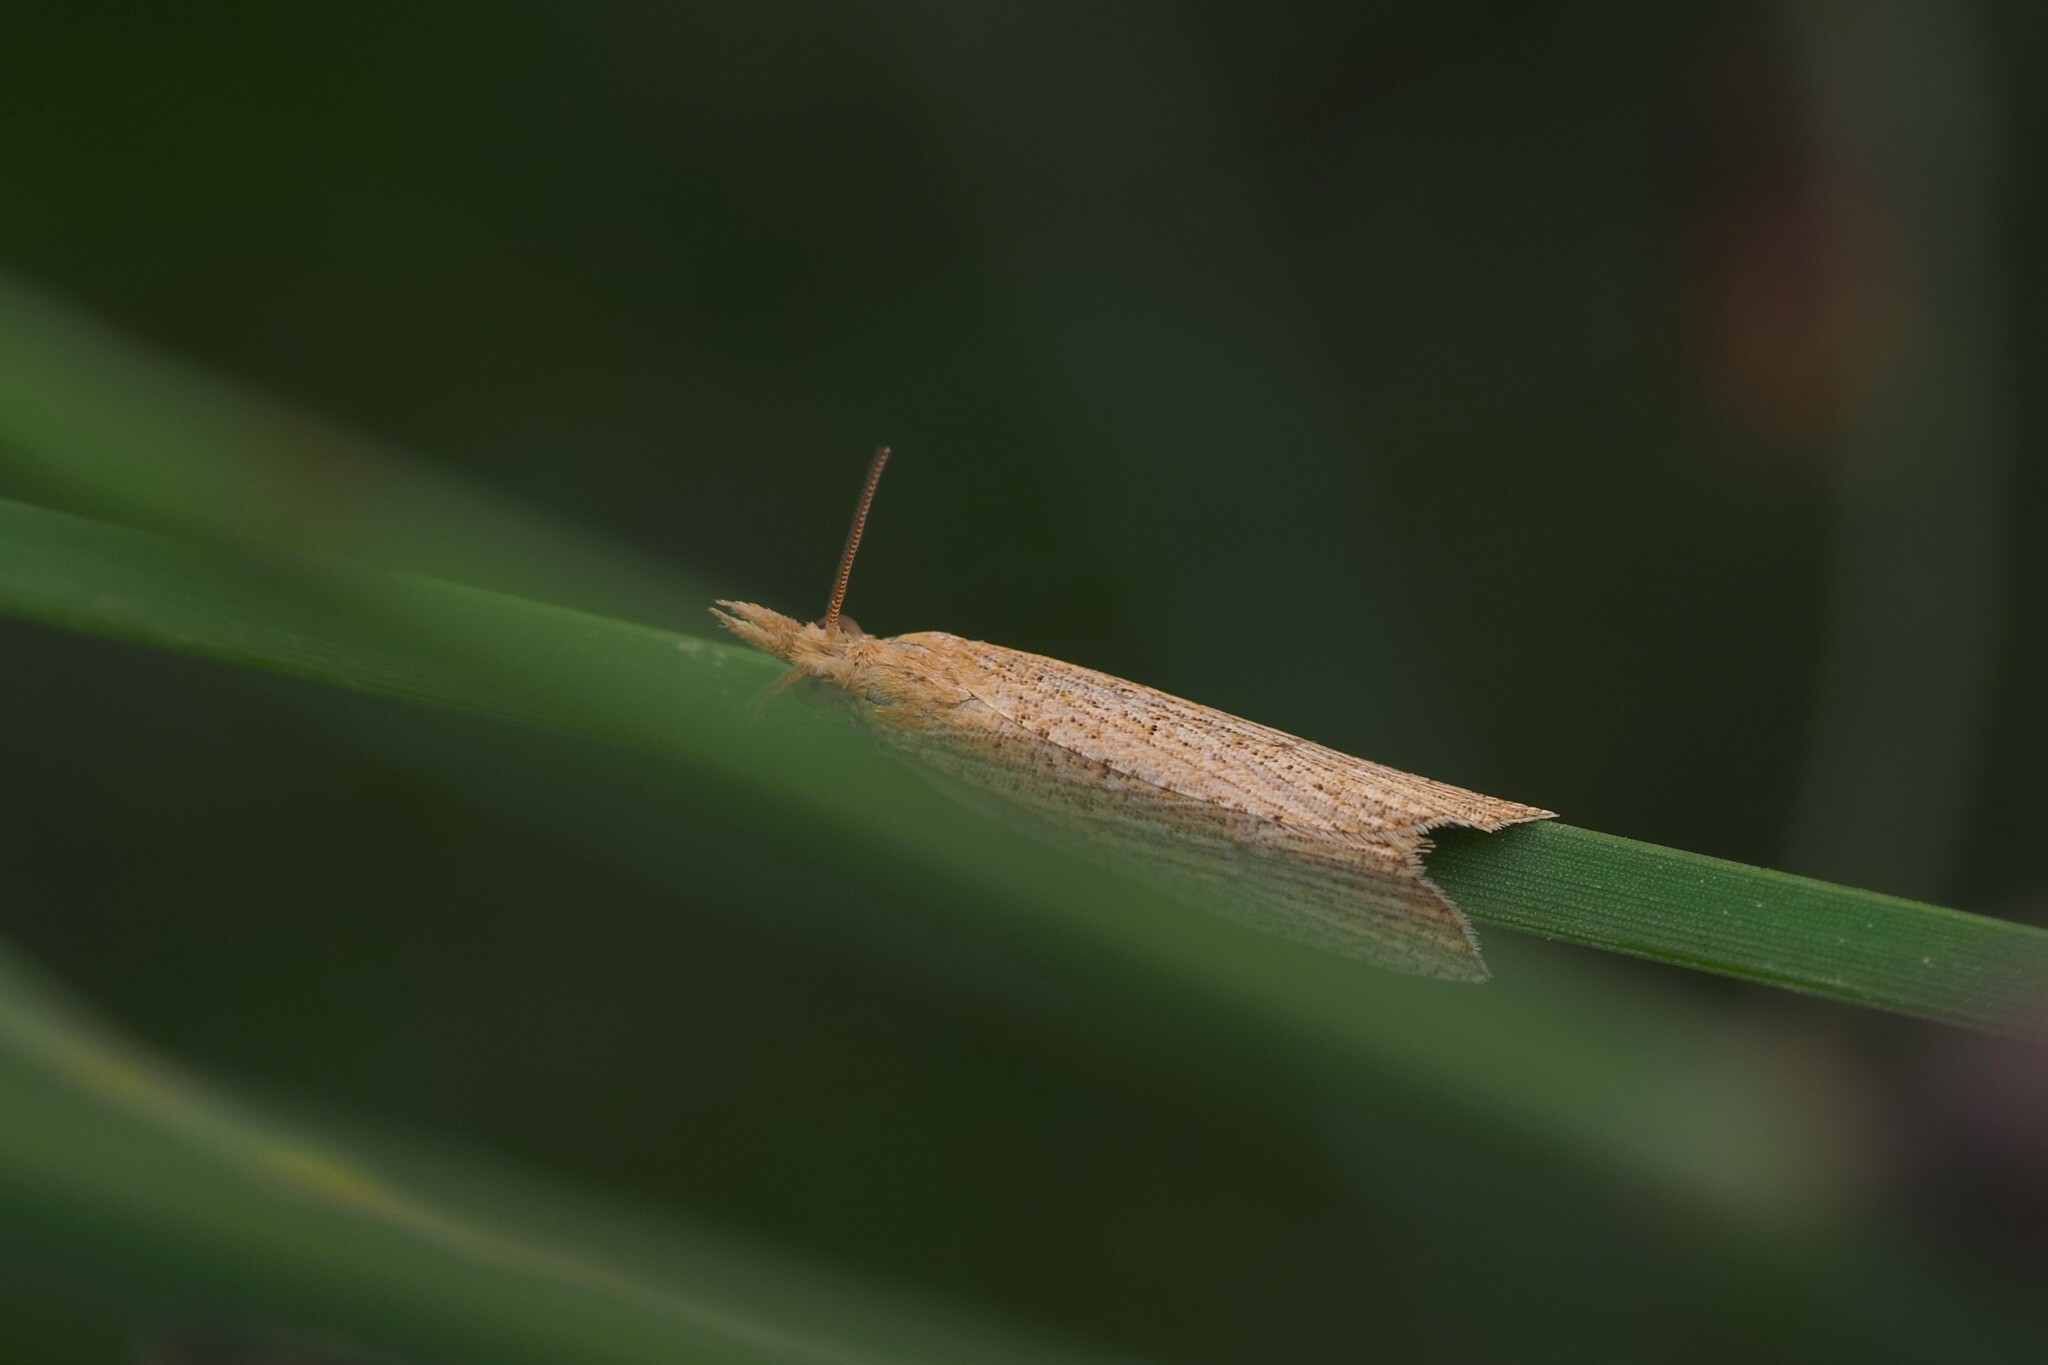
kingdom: Animalia
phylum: Arthropoda
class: Insecta
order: Lepidoptera
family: Tortricidae
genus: Bactra
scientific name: Bactra noteraula
